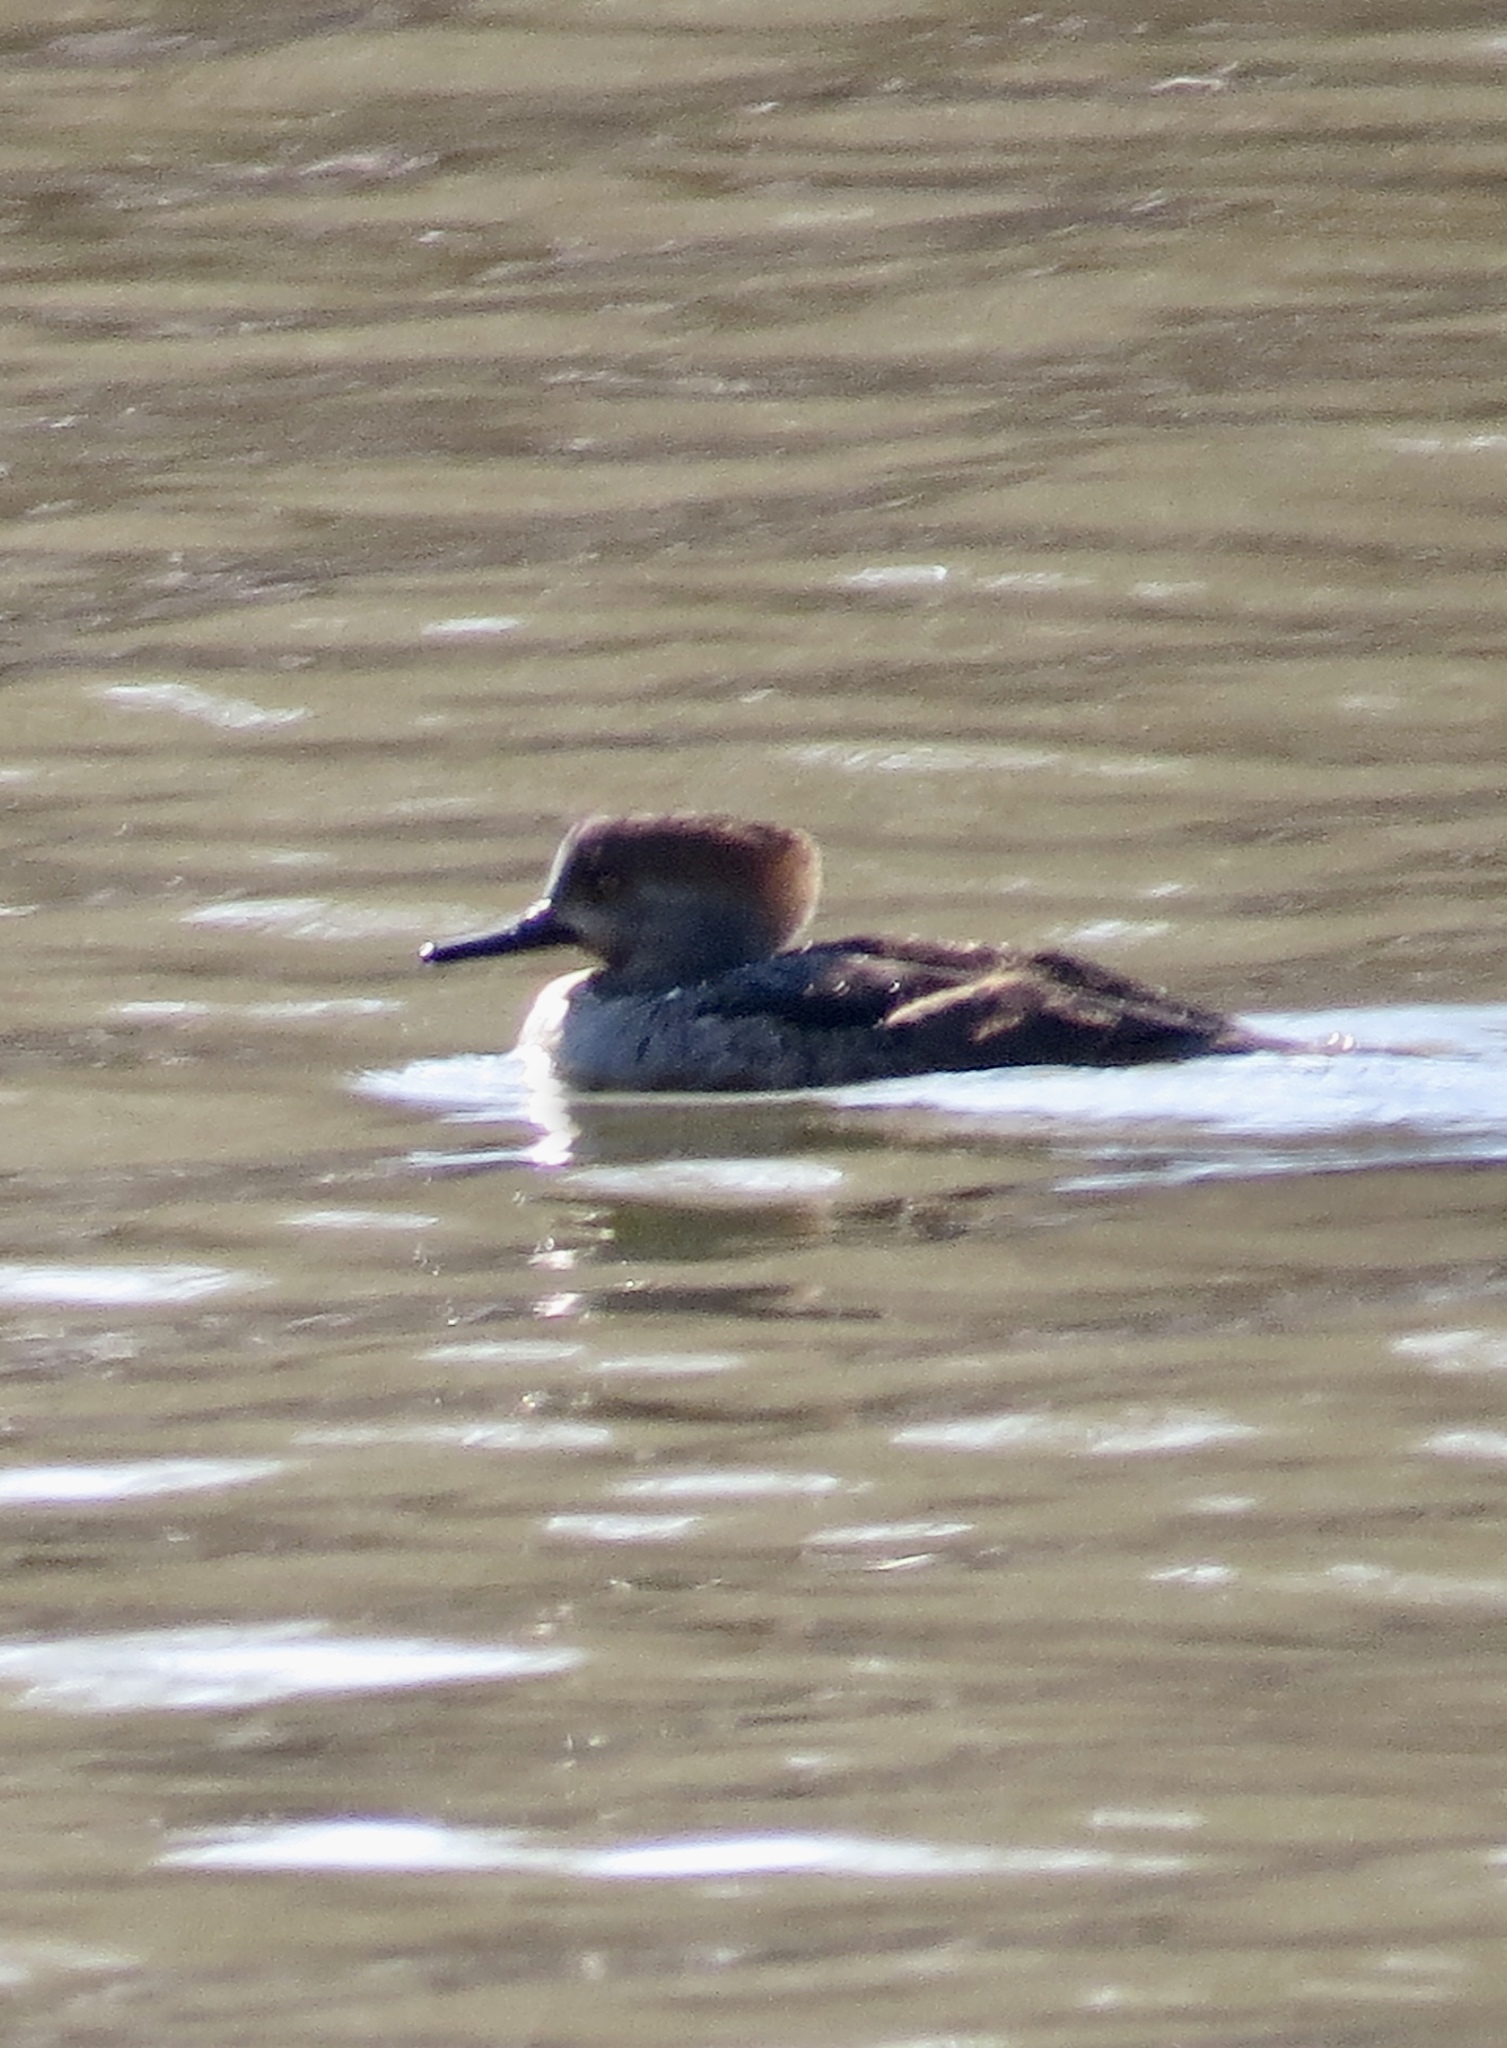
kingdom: Animalia
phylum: Chordata
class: Aves
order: Anseriformes
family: Anatidae
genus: Lophodytes
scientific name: Lophodytes cucullatus
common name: Hooded merganser
